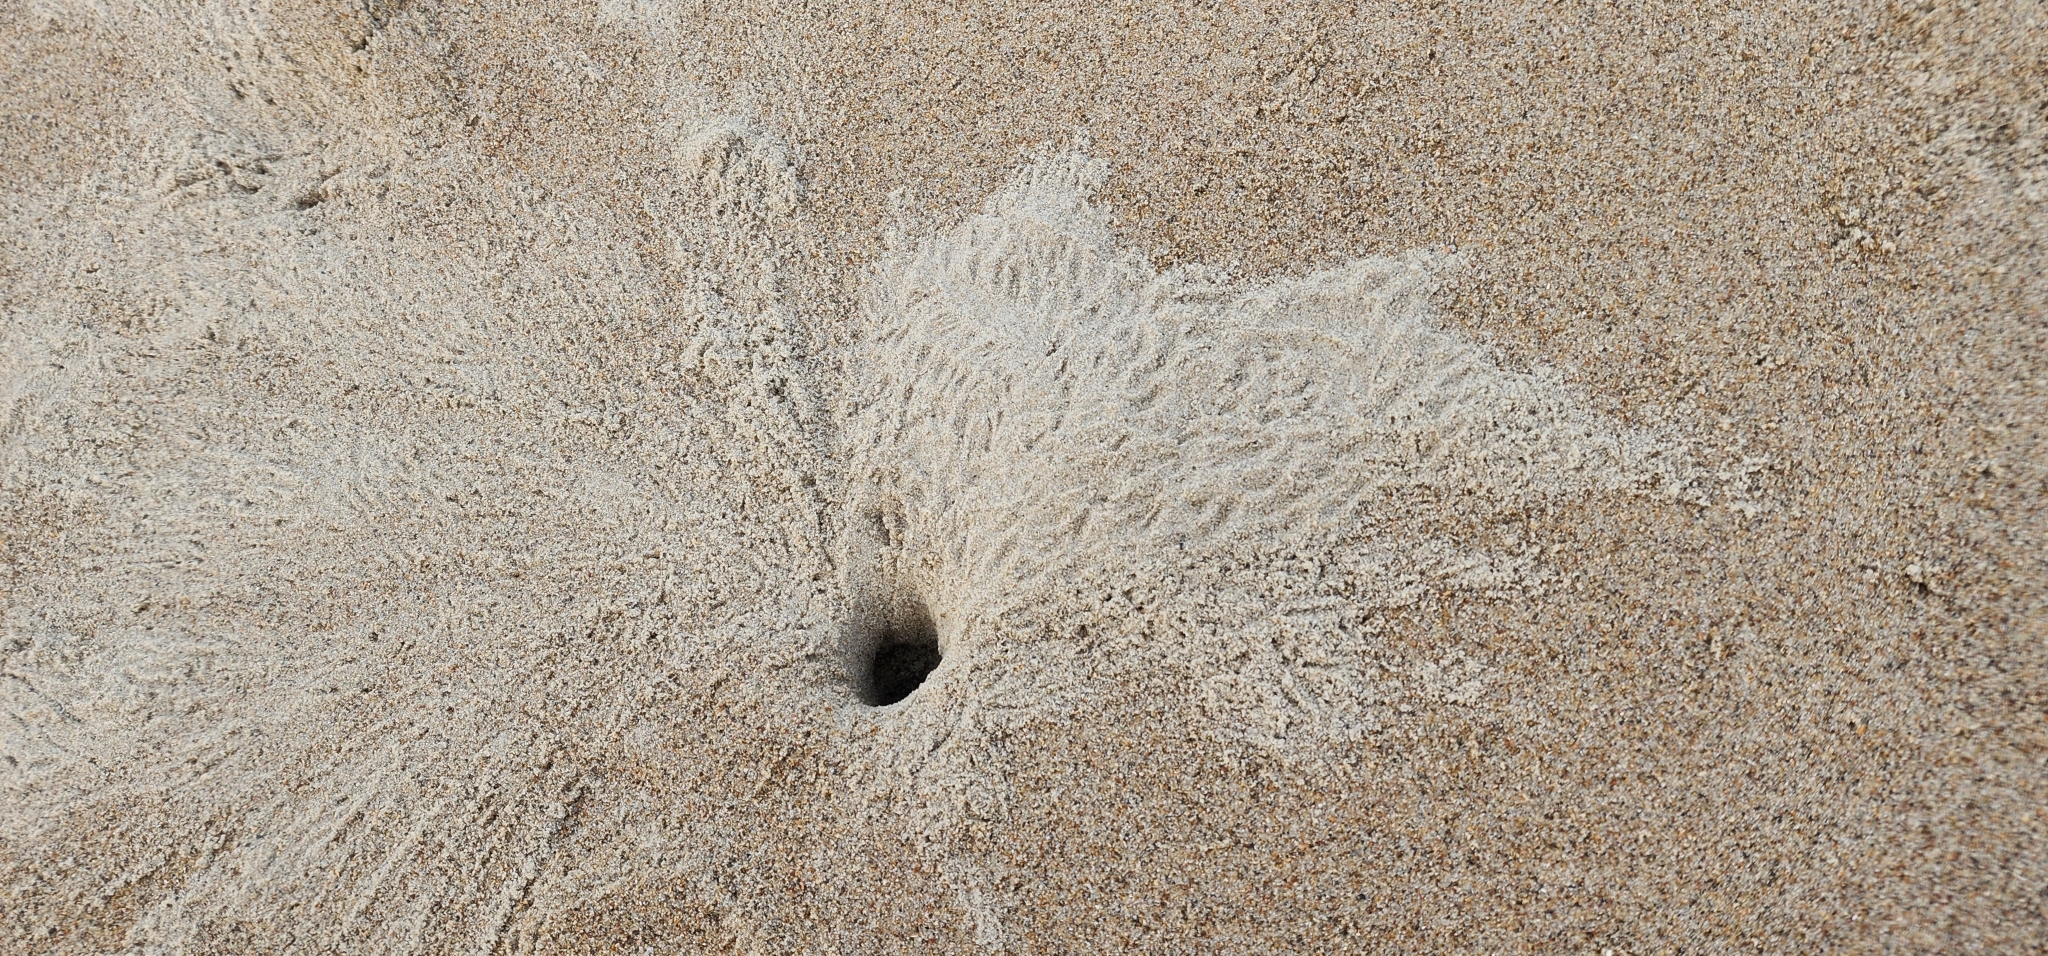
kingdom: Animalia
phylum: Arthropoda
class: Malacostraca
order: Decapoda
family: Ocypodidae
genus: Ocypode
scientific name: Ocypode quadrata
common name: Ghost crab
